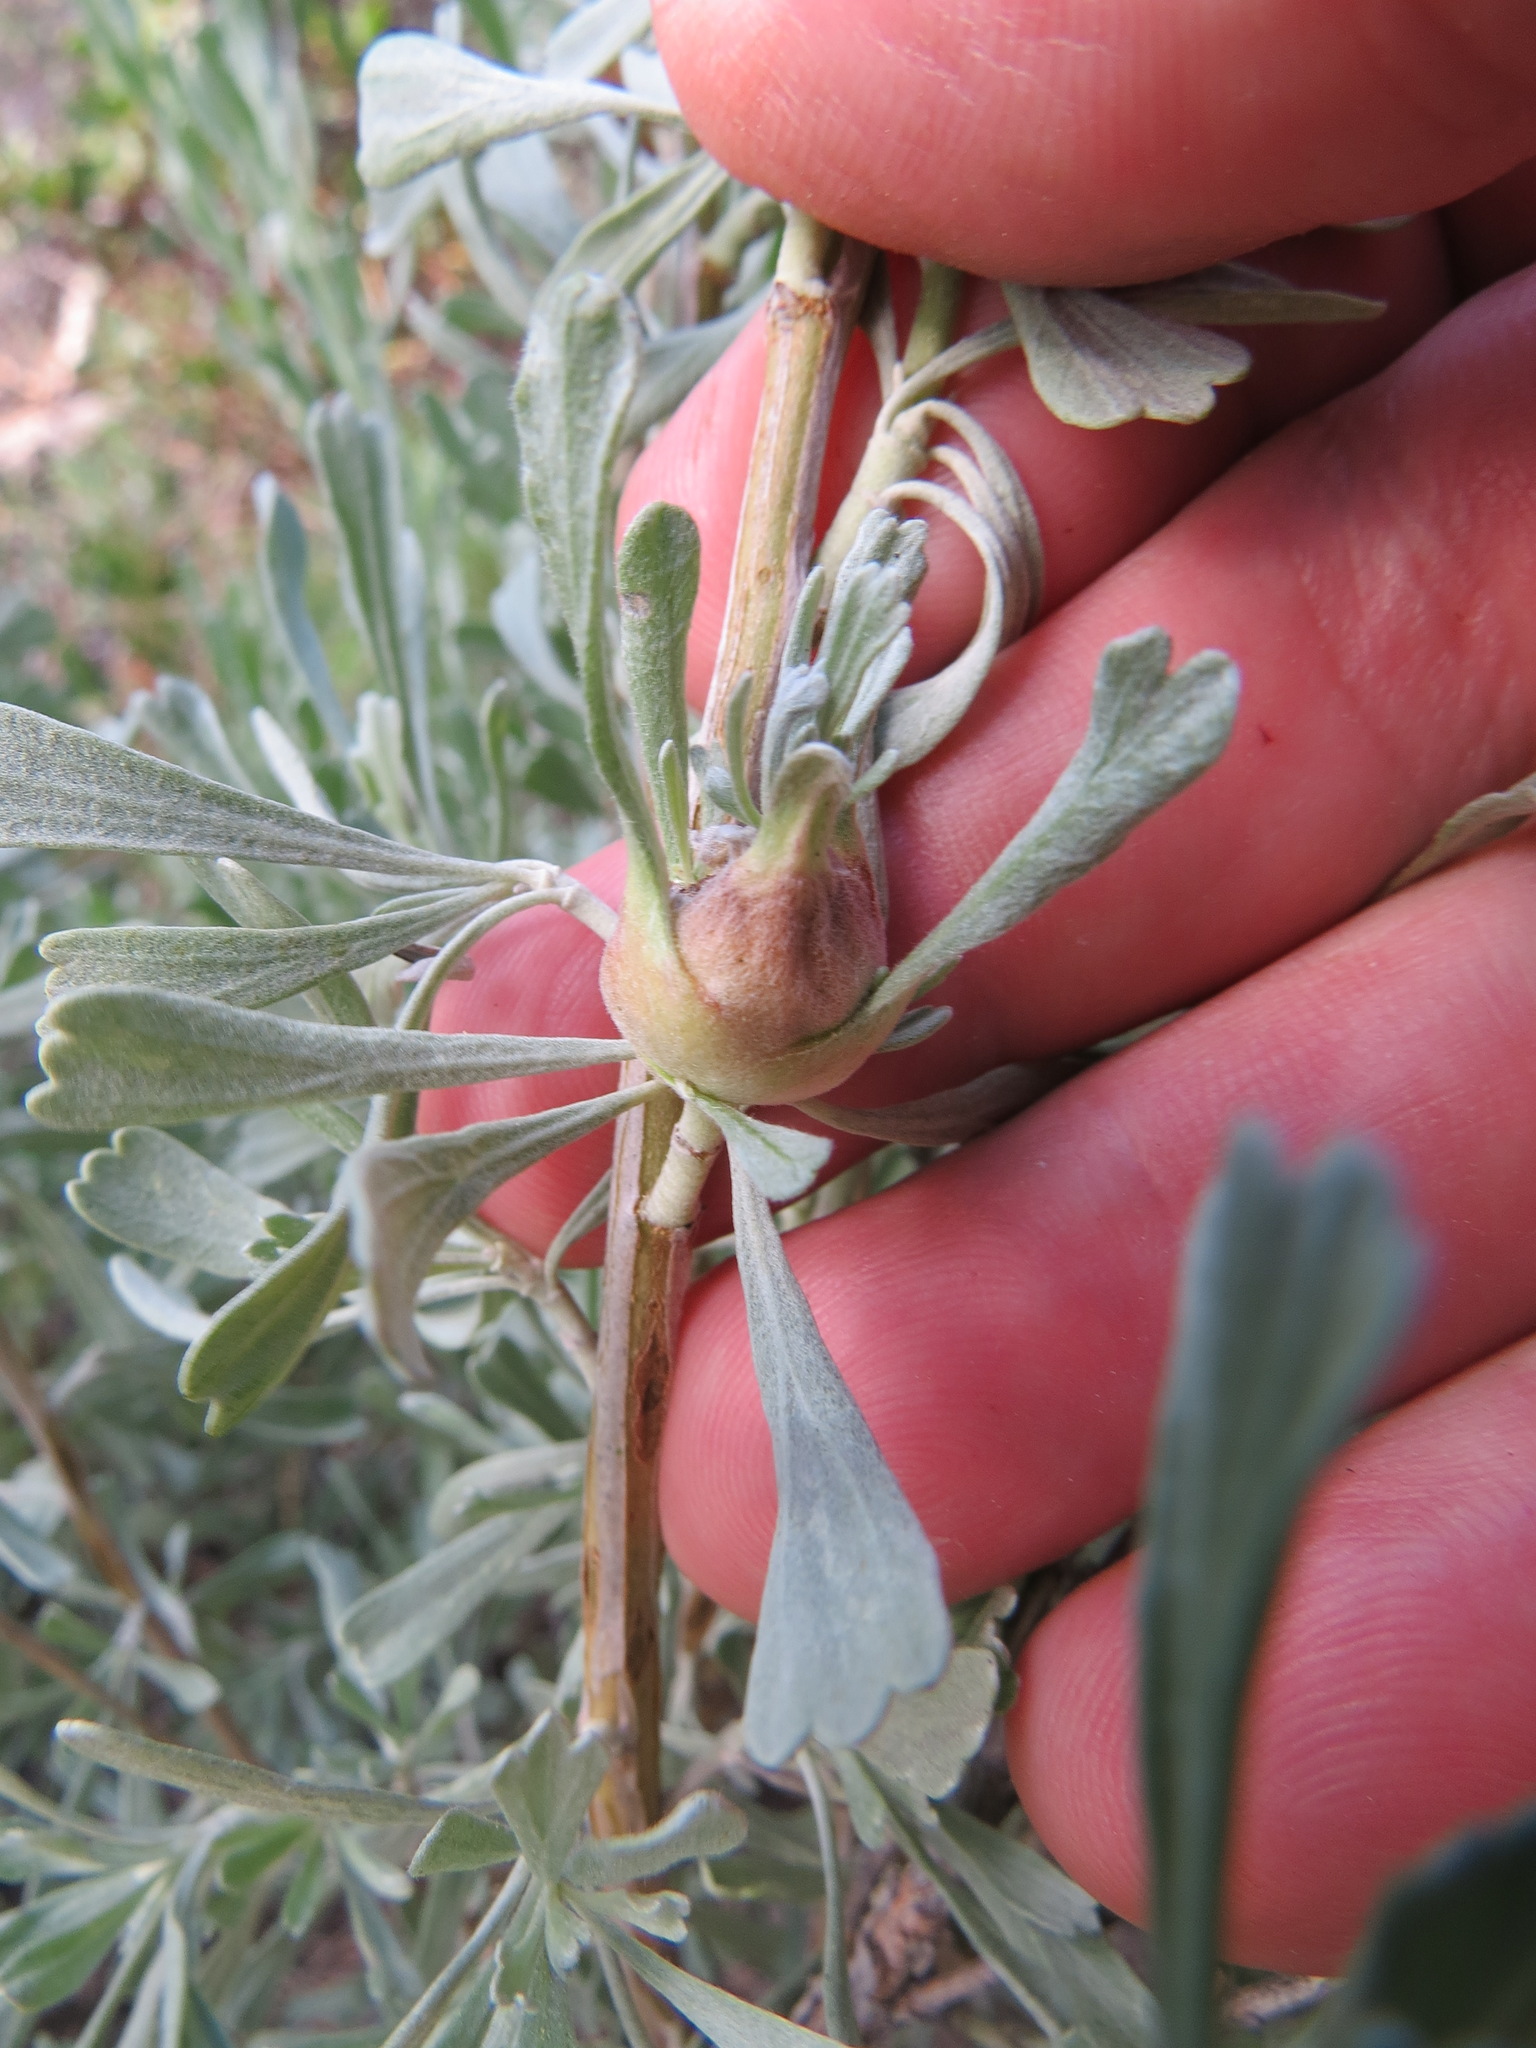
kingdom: Animalia
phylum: Arthropoda
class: Insecta
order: Diptera
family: Tephritidae
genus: Eutreta
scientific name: Eutreta diana
